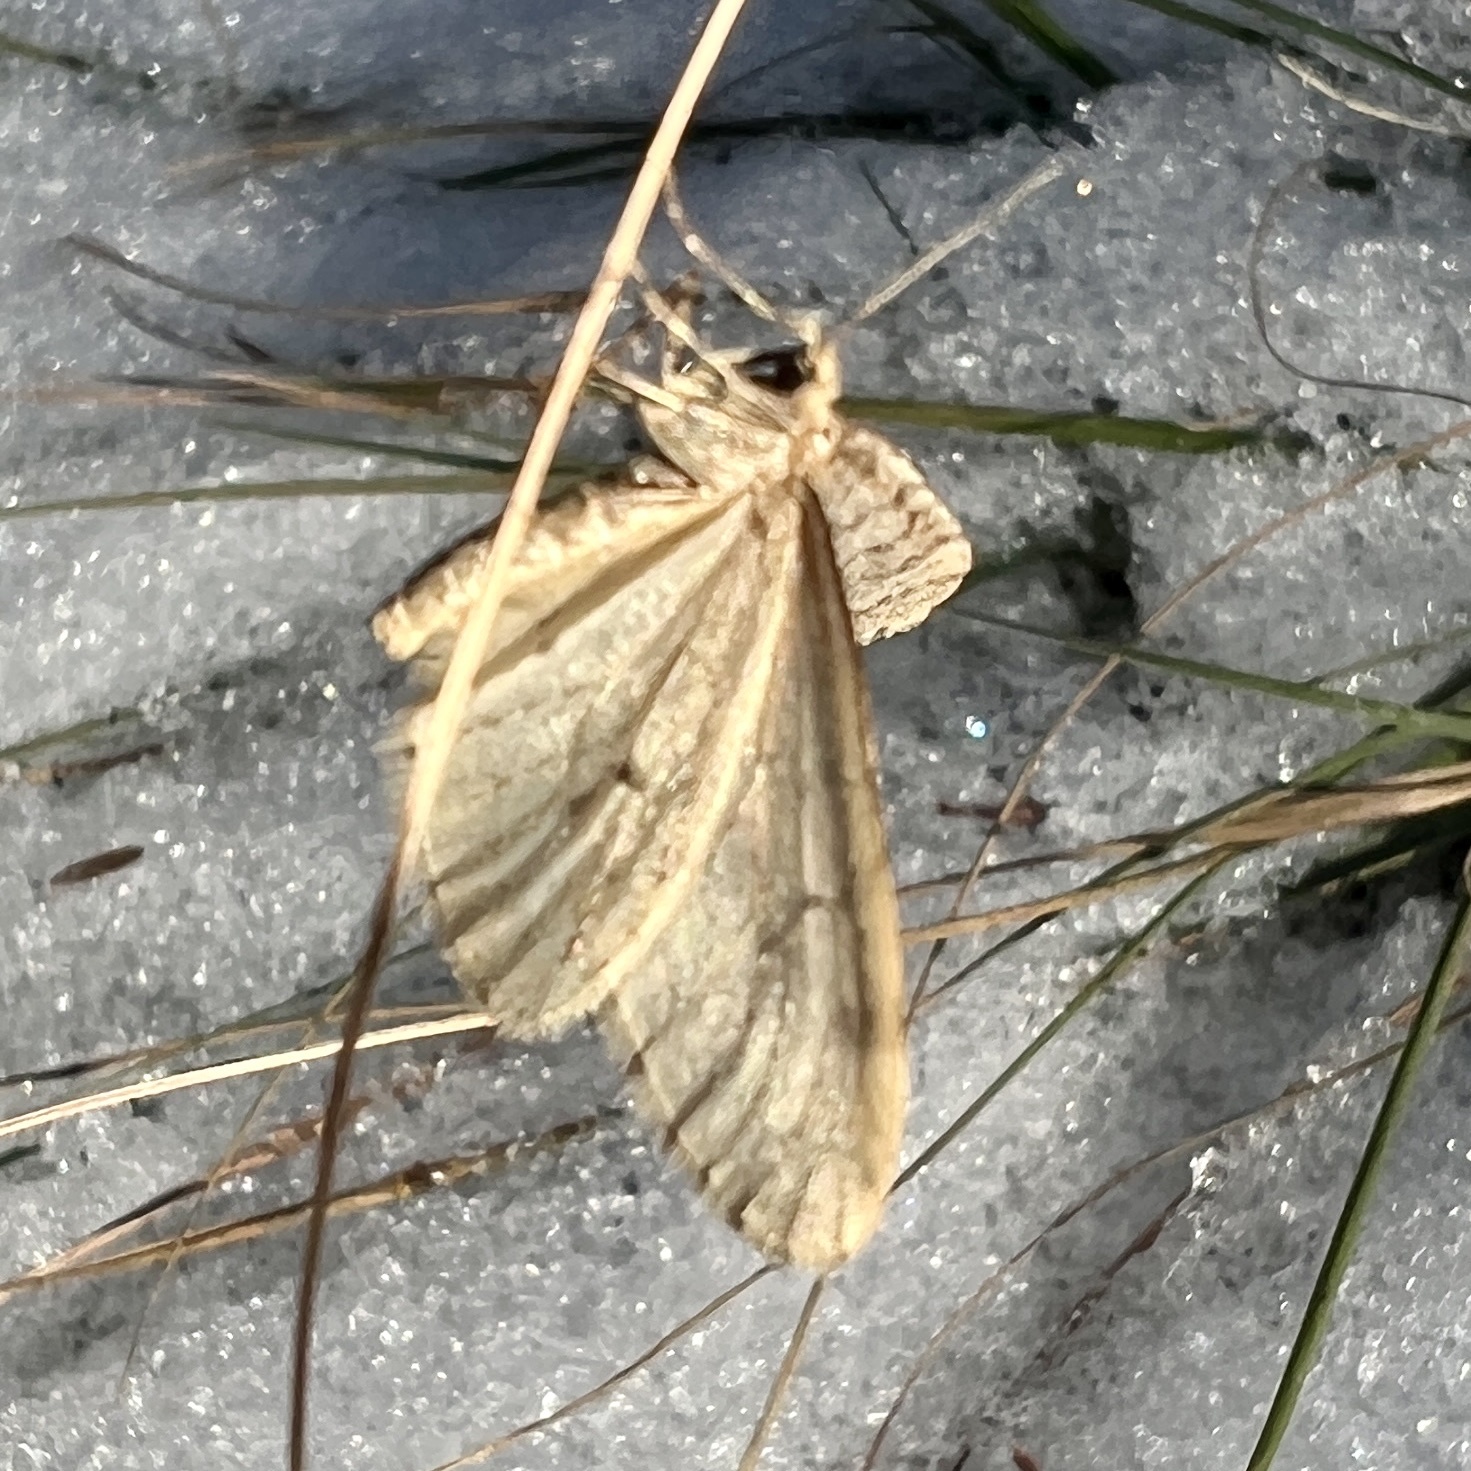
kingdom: Animalia
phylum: Arthropoda
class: Insecta
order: Lepidoptera
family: Geometridae
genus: Operophtera
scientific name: Operophtera bruceata
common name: Bruce spanworm
